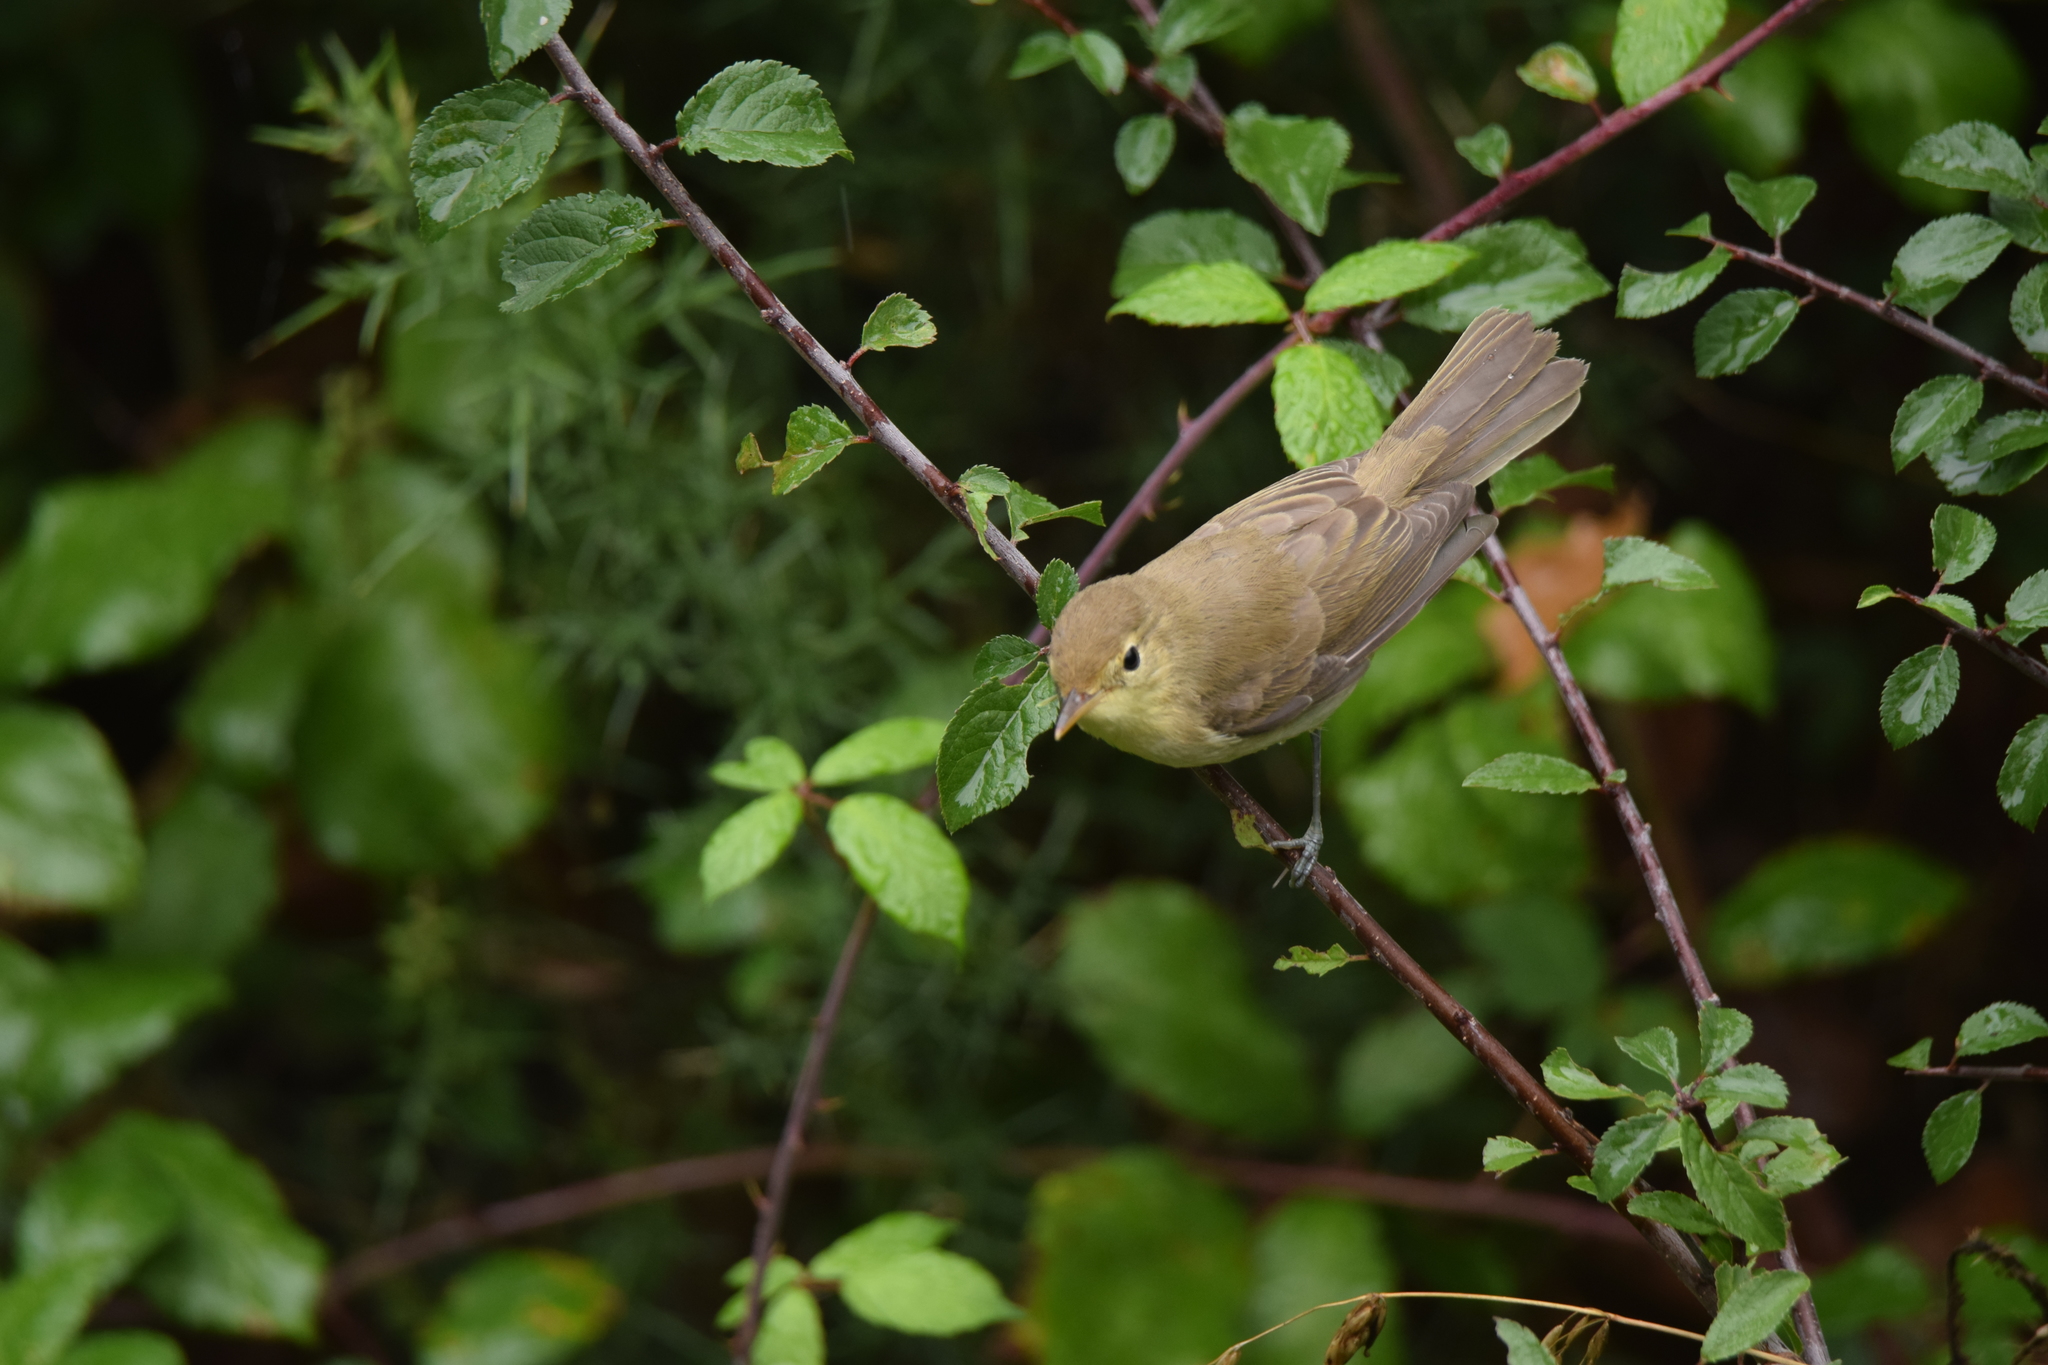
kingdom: Animalia
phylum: Chordata
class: Aves
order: Passeriformes
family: Acrocephalidae
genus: Hippolais
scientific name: Hippolais polyglotta
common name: Melodious warbler
